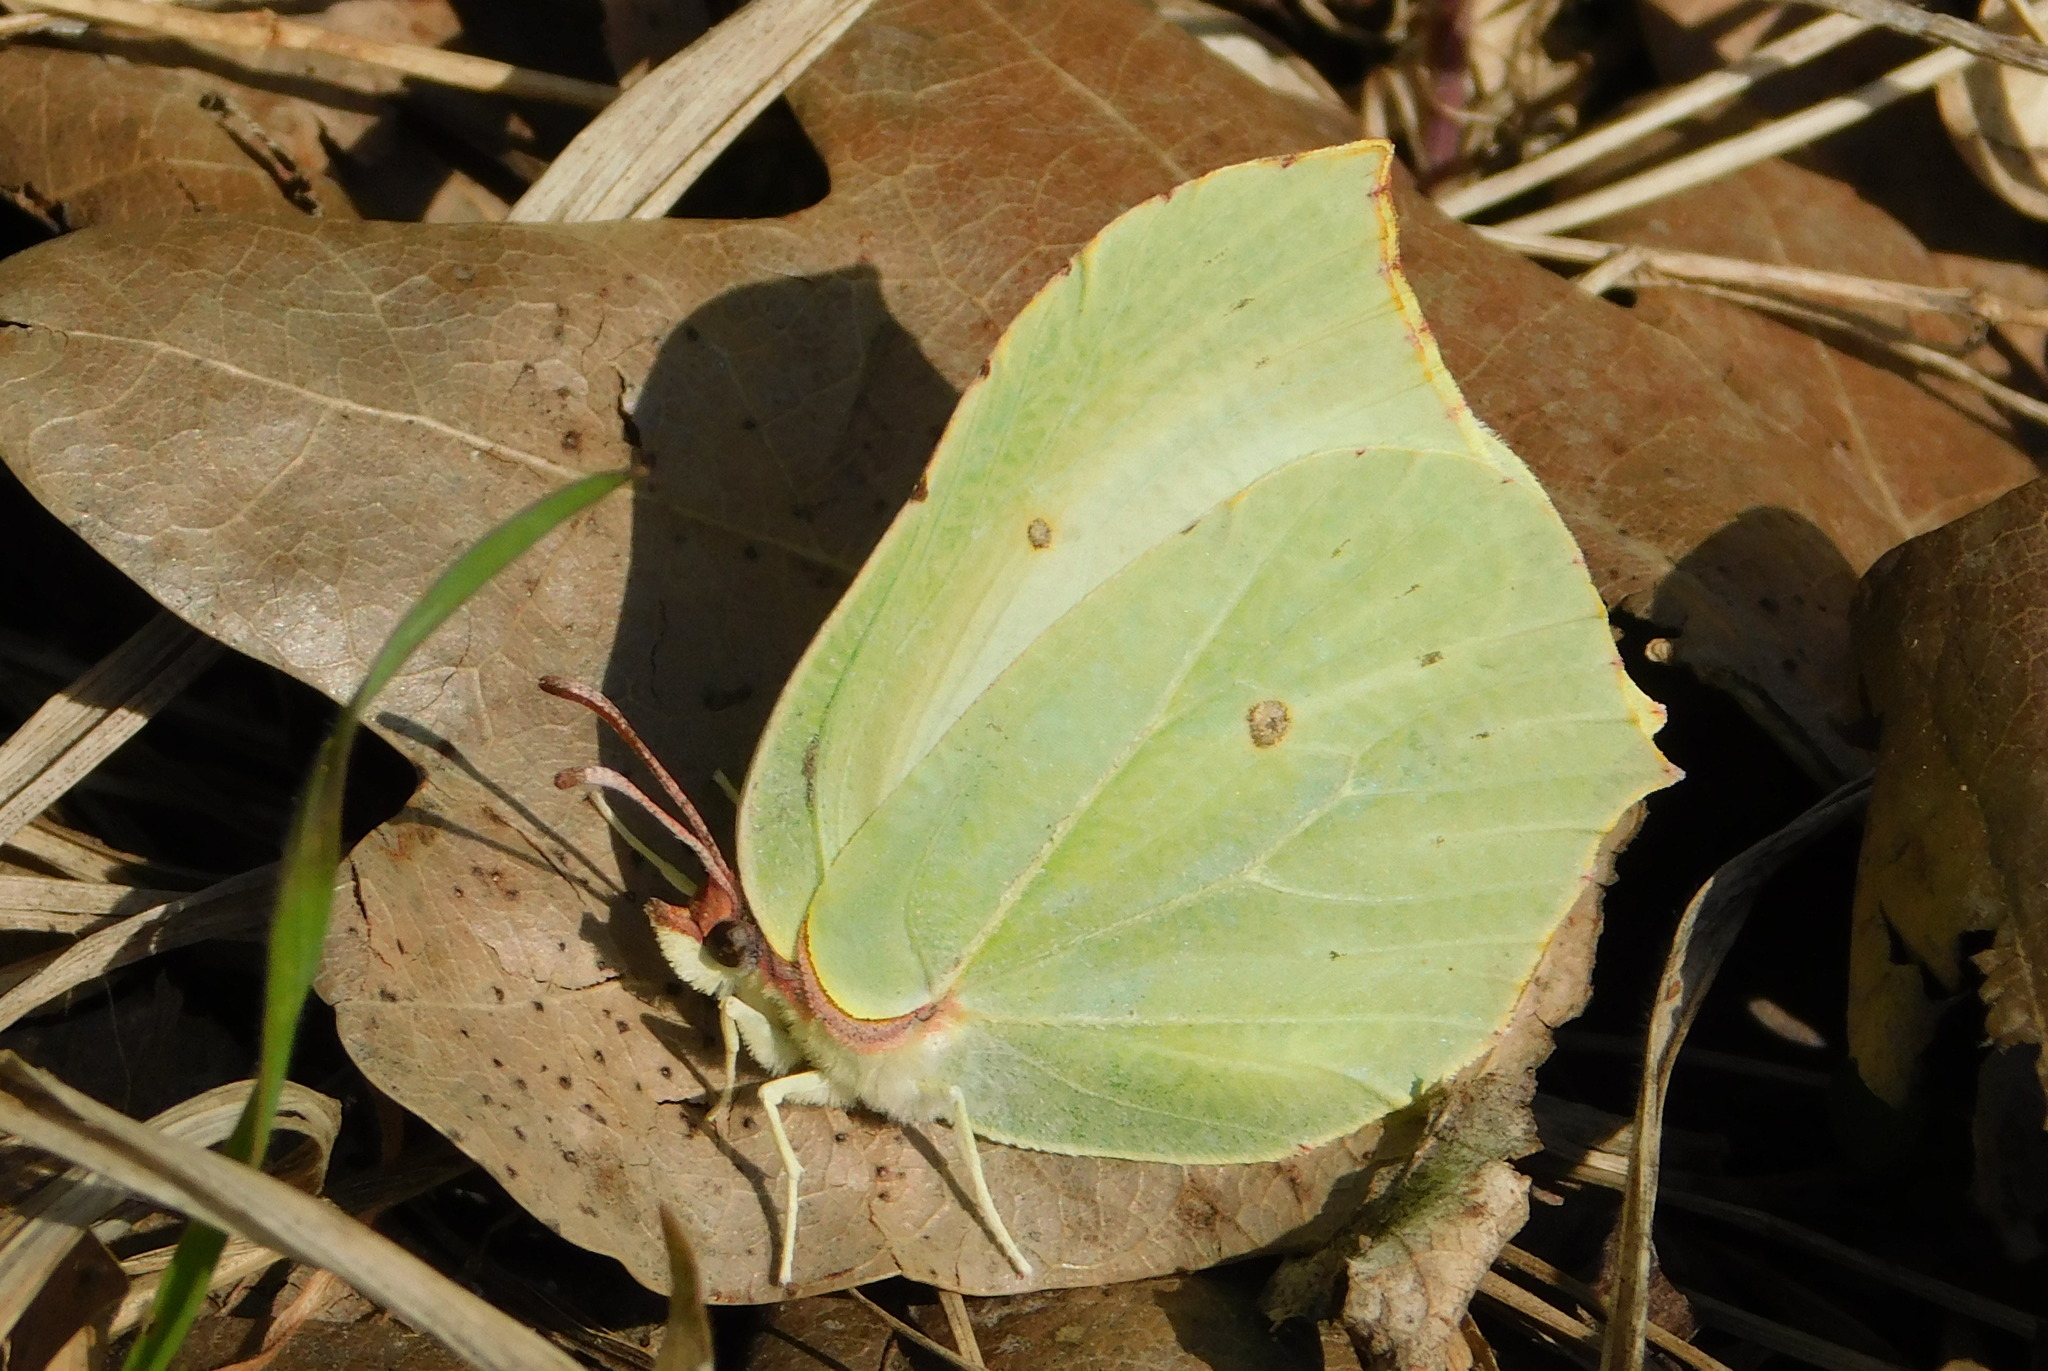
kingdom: Animalia
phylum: Arthropoda
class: Insecta
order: Lepidoptera
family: Pieridae
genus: Gonepteryx
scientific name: Gonepteryx rhamni
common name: Brimstone
